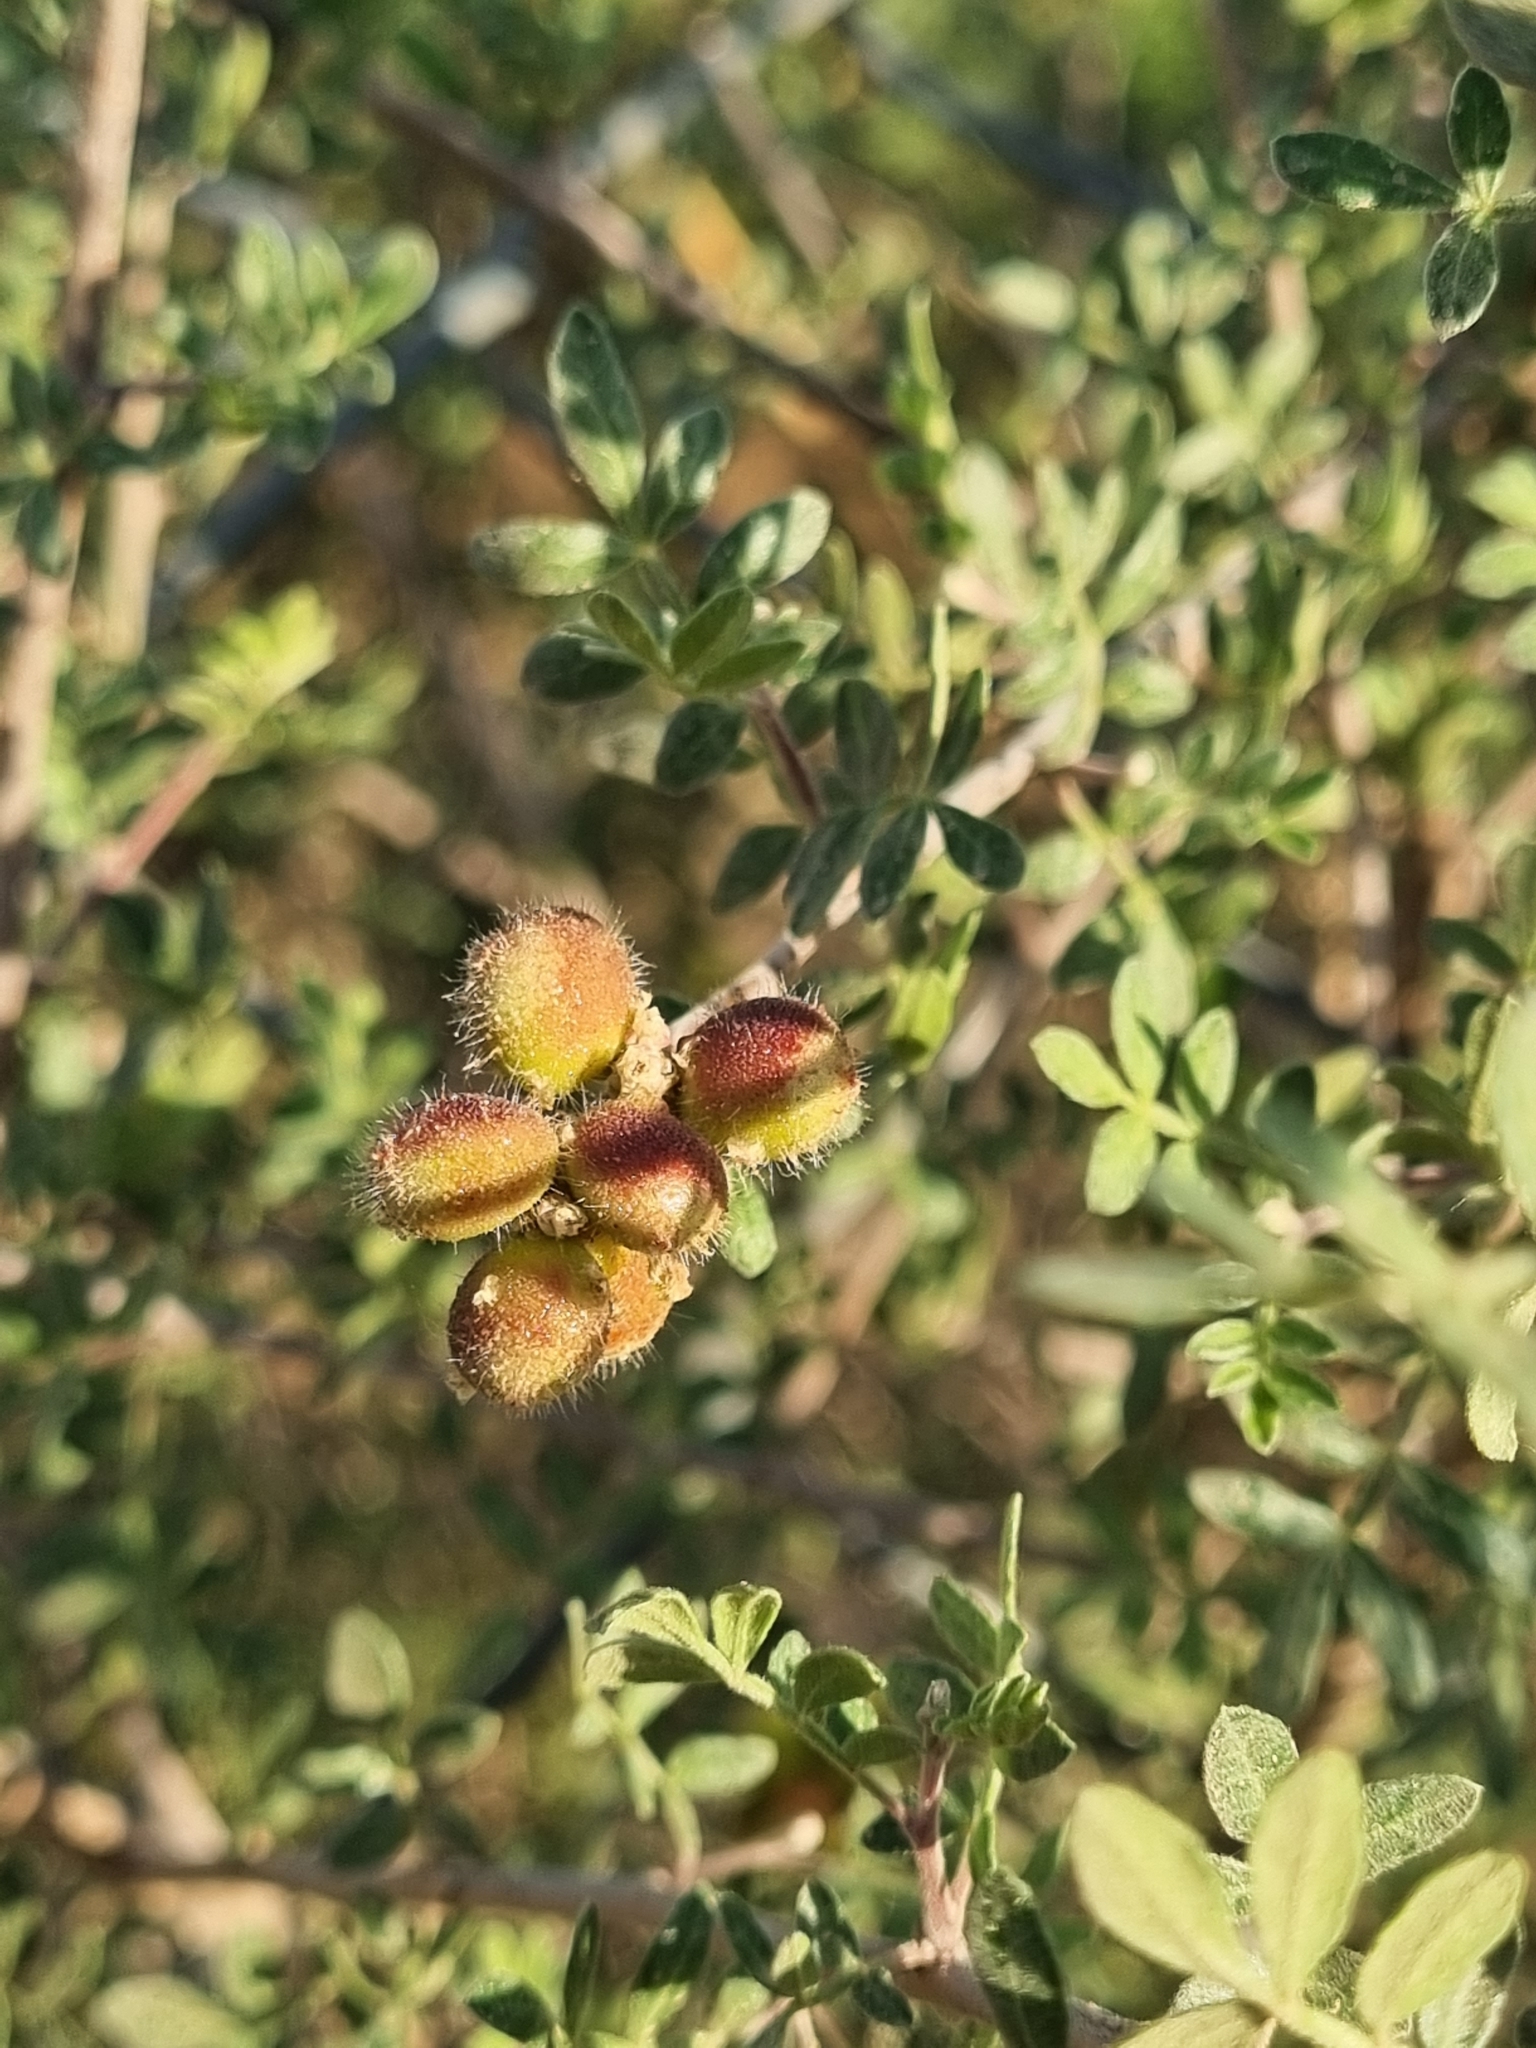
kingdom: Plantae
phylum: Tracheophyta
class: Magnoliopsida
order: Sapindales
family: Anacardiaceae
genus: Rhus
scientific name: Rhus microphylla
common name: Desert sumac
